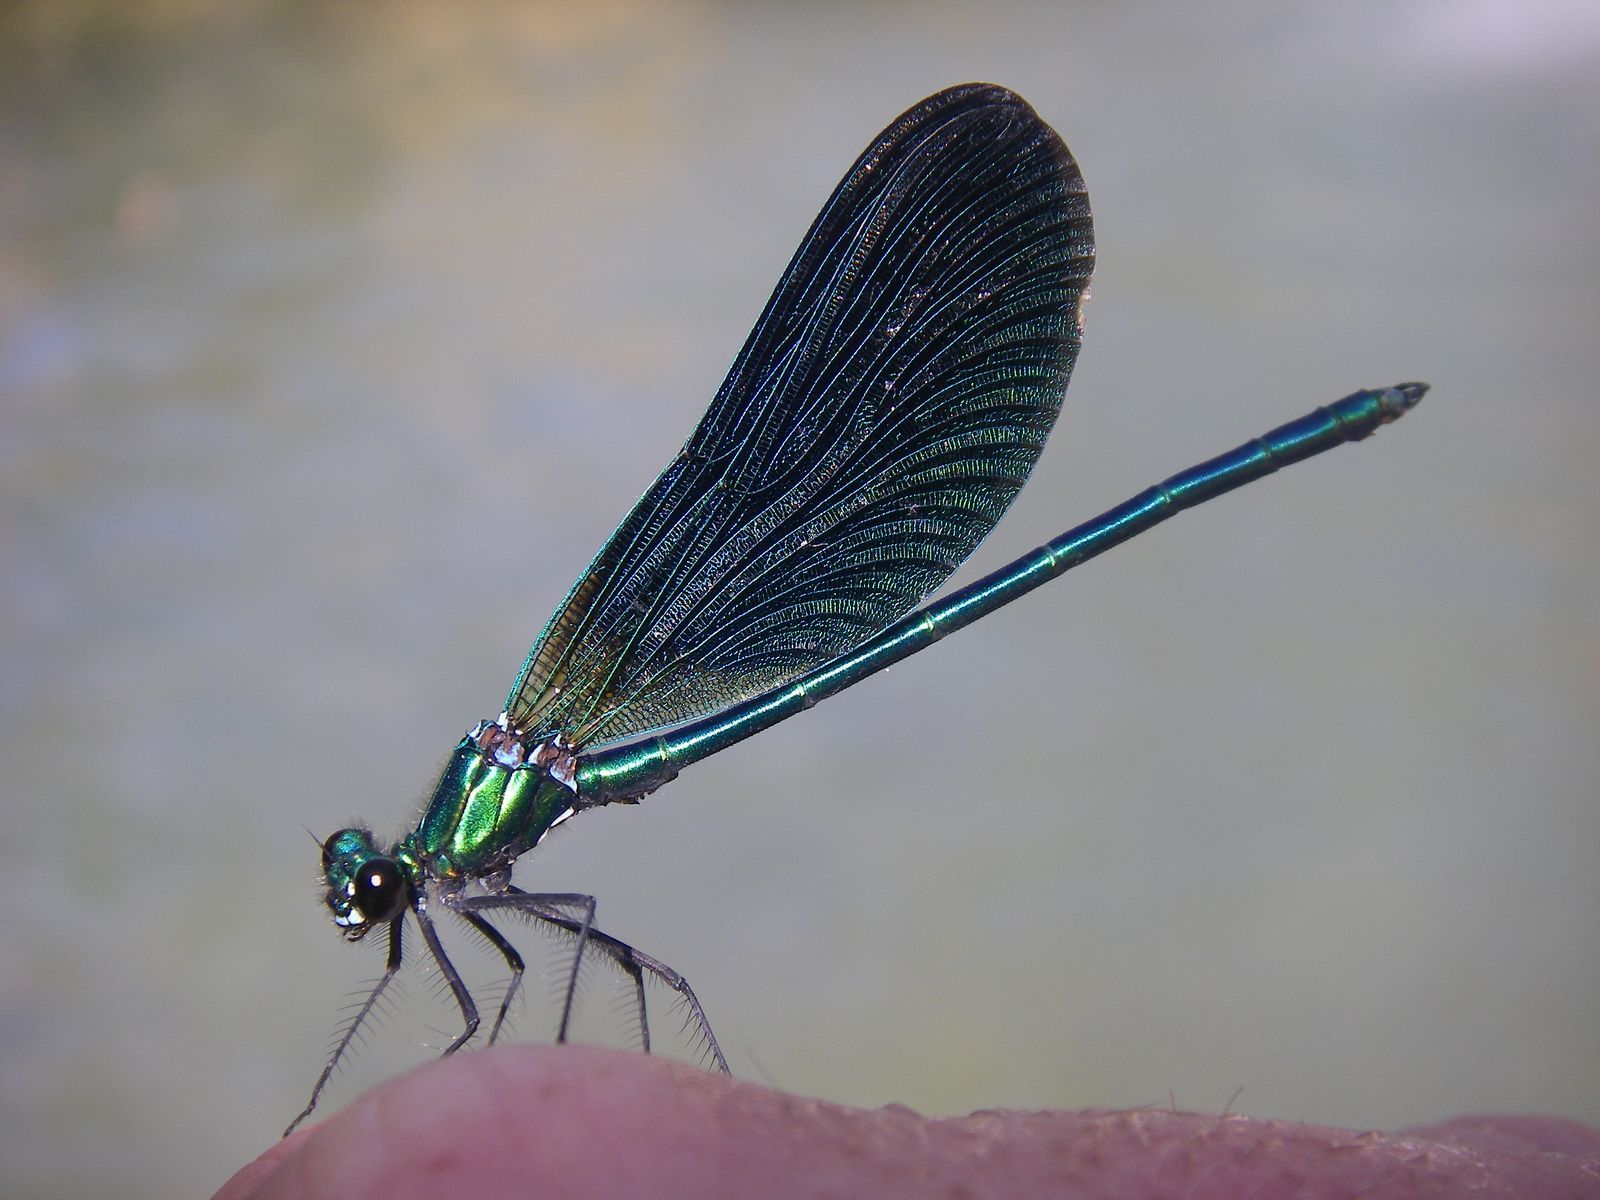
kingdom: Animalia
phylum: Arthropoda
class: Insecta
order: Odonata
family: Calopterygidae
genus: Calopteryx
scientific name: Calopteryx virgo
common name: Beautiful demoiselle
